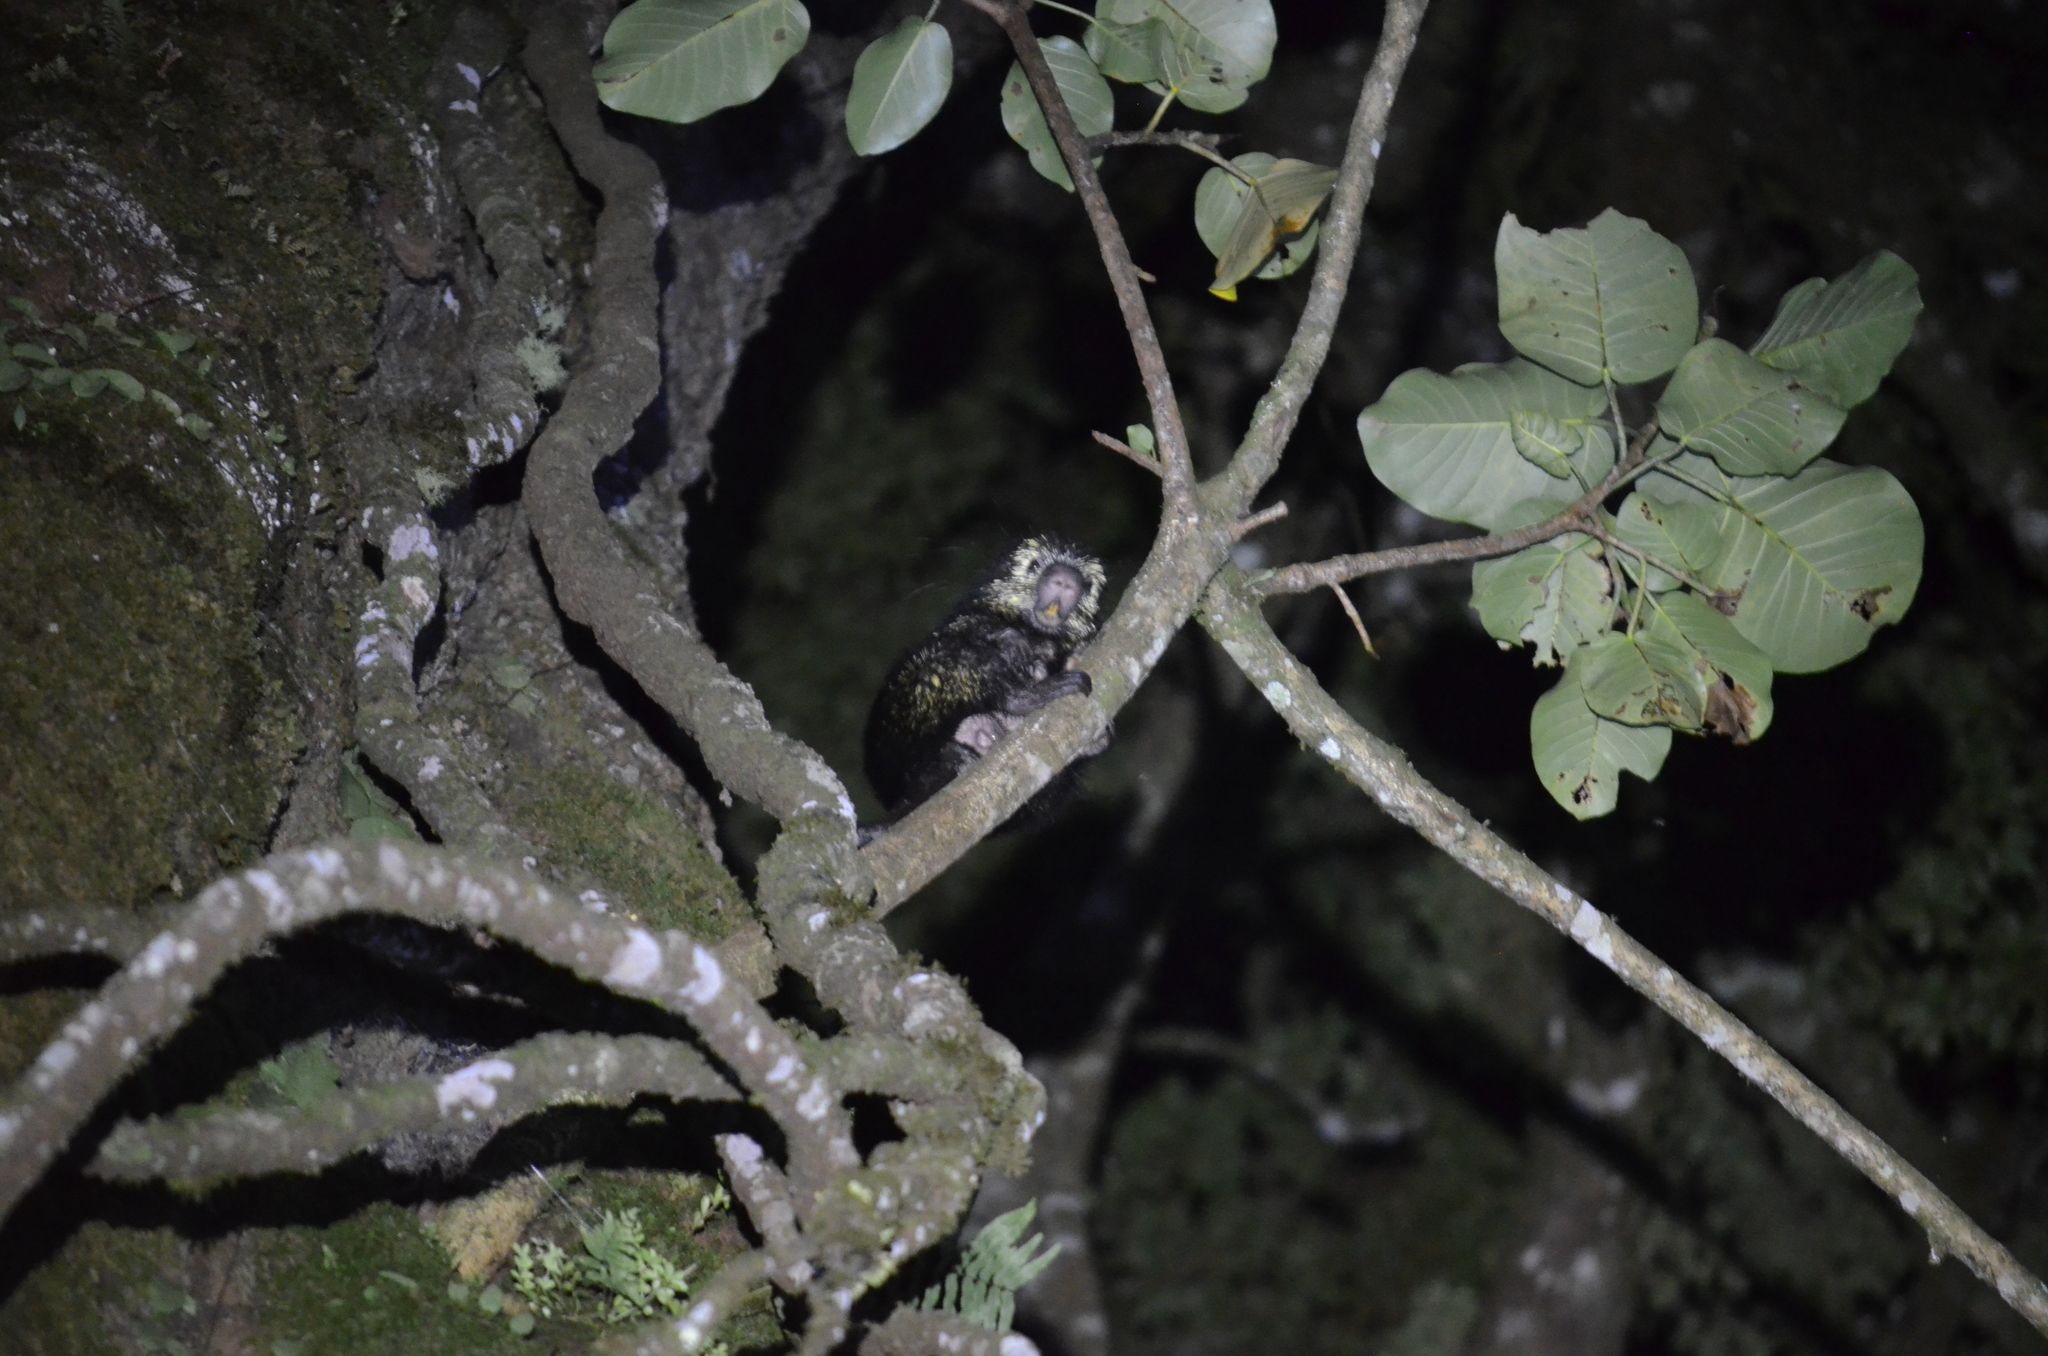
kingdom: Animalia
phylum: Chordata
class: Mammalia
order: Rodentia
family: Erethizontidae
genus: Sphiggurus
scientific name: Sphiggurus mexicanus
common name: Mexican hairy dwarf porcupine
